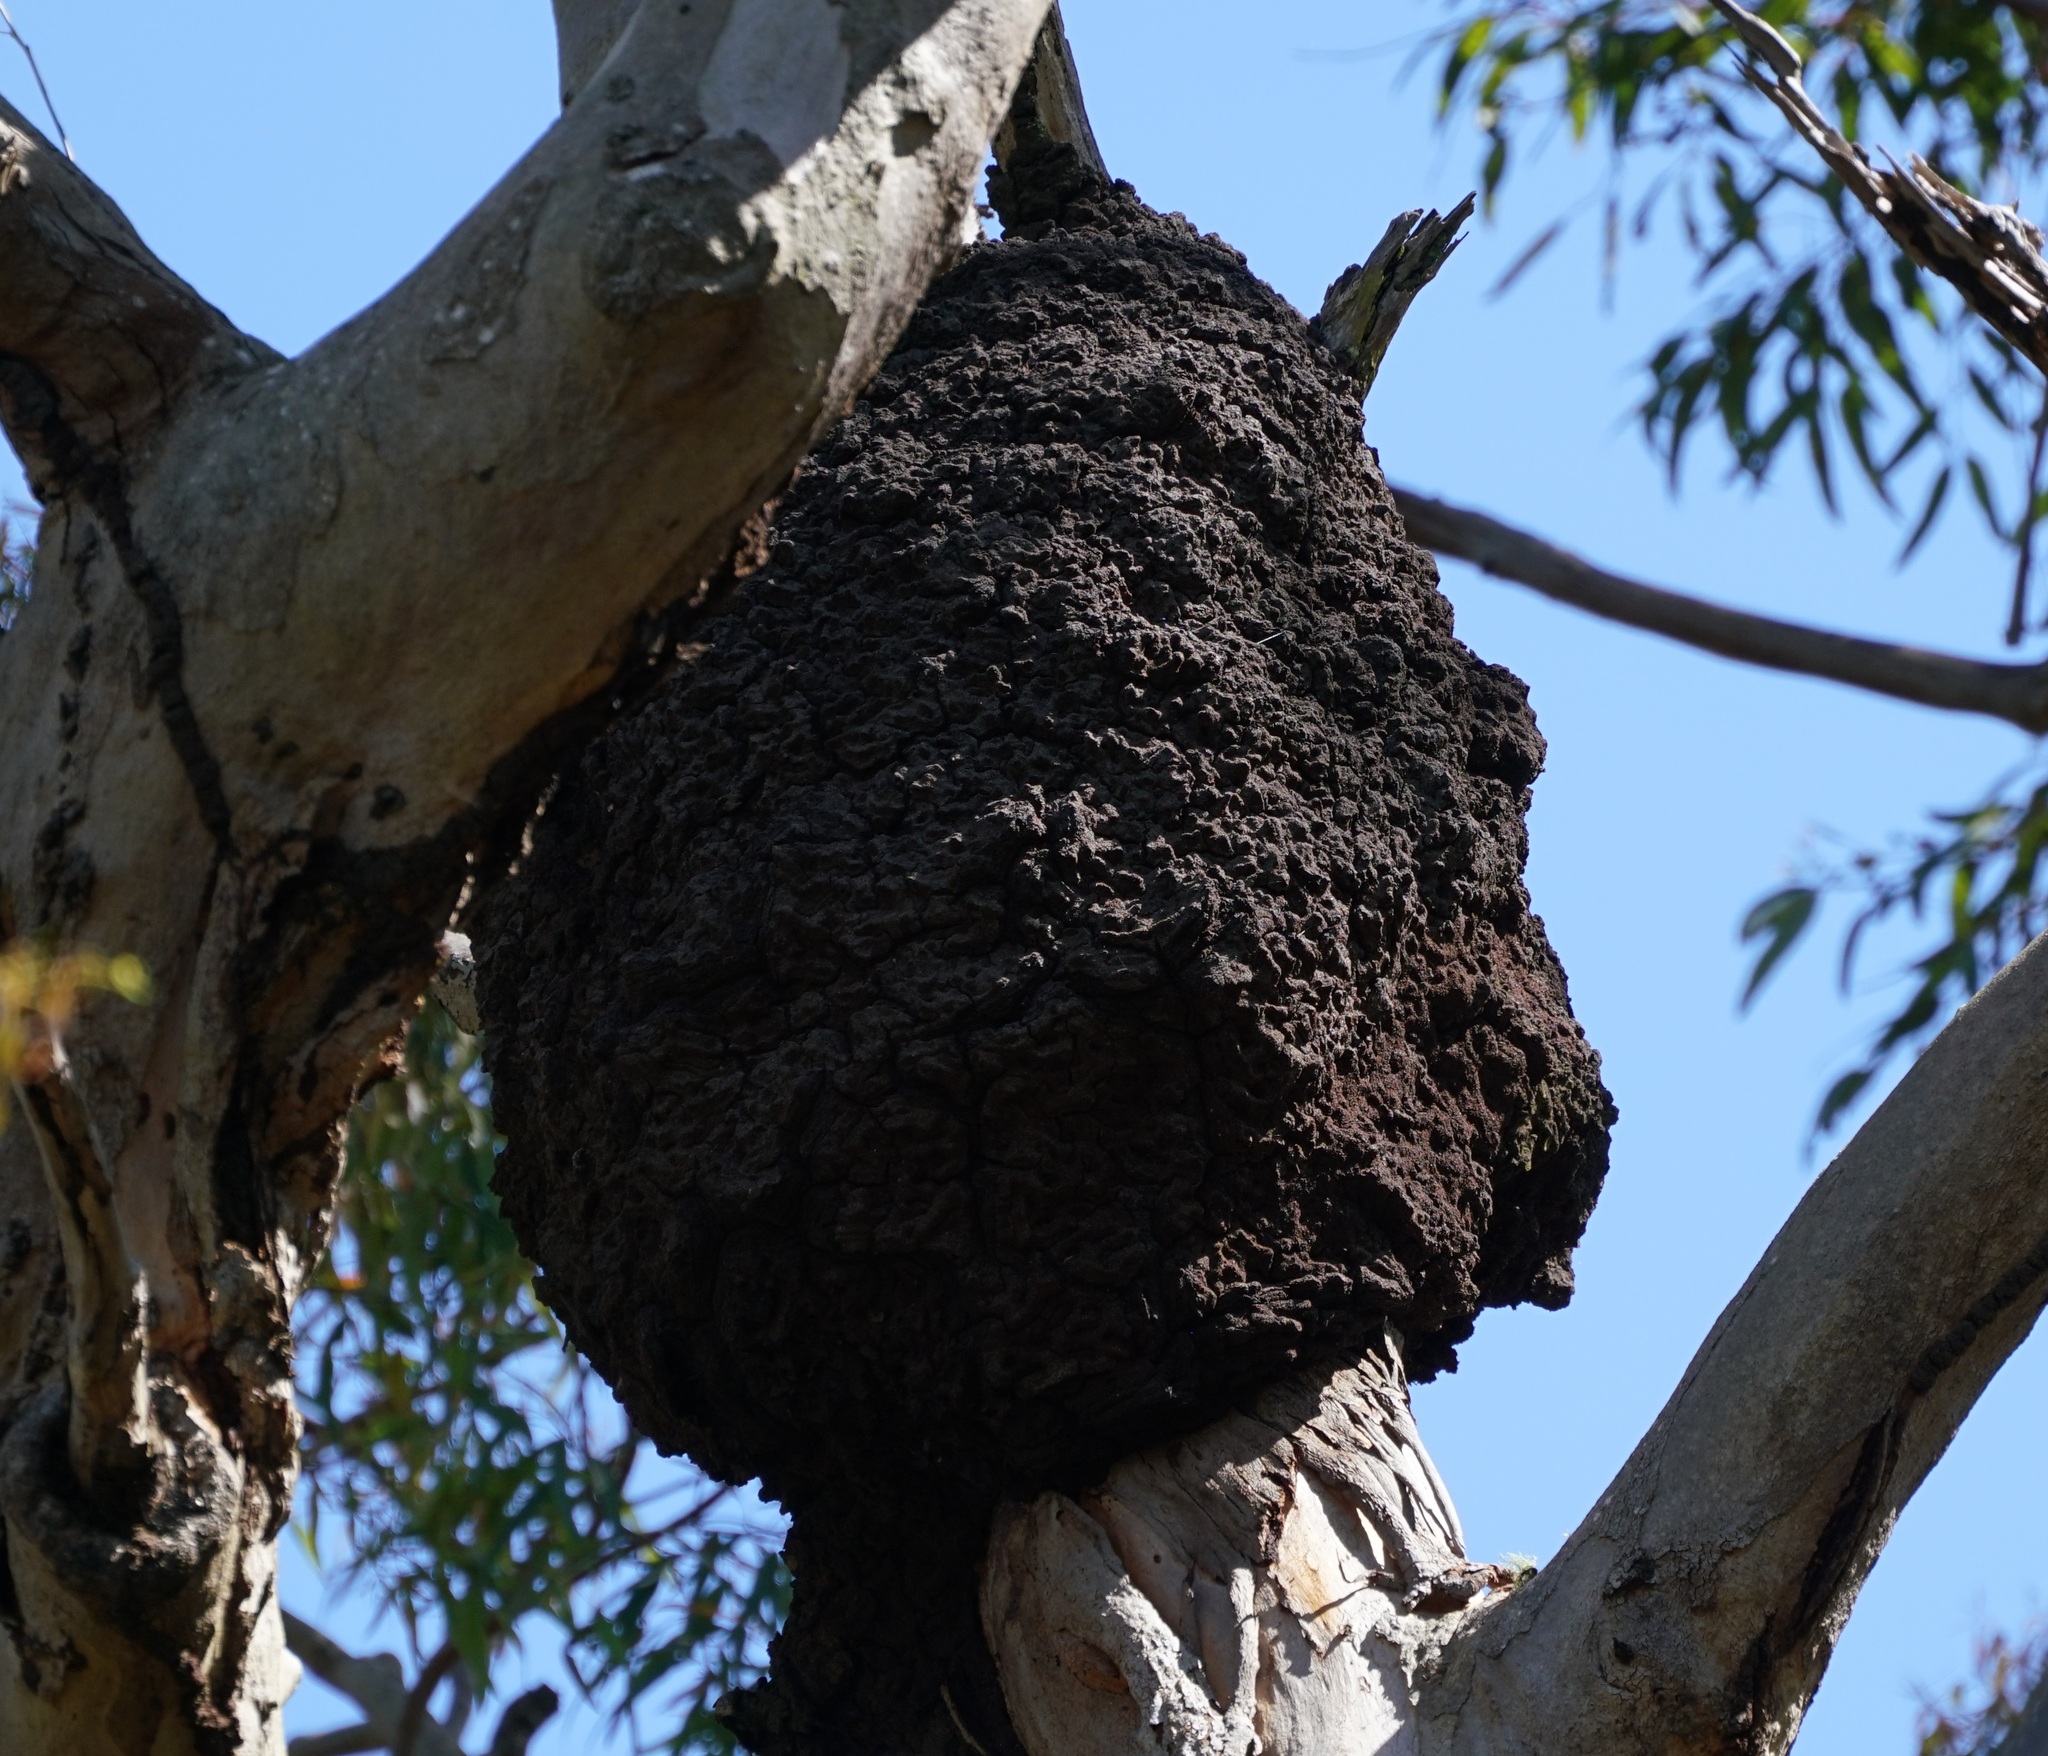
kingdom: Animalia
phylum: Arthropoda
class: Insecta
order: Blattodea
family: Termitidae
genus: Nasutitermes
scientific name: Nasutitermes walkeri
